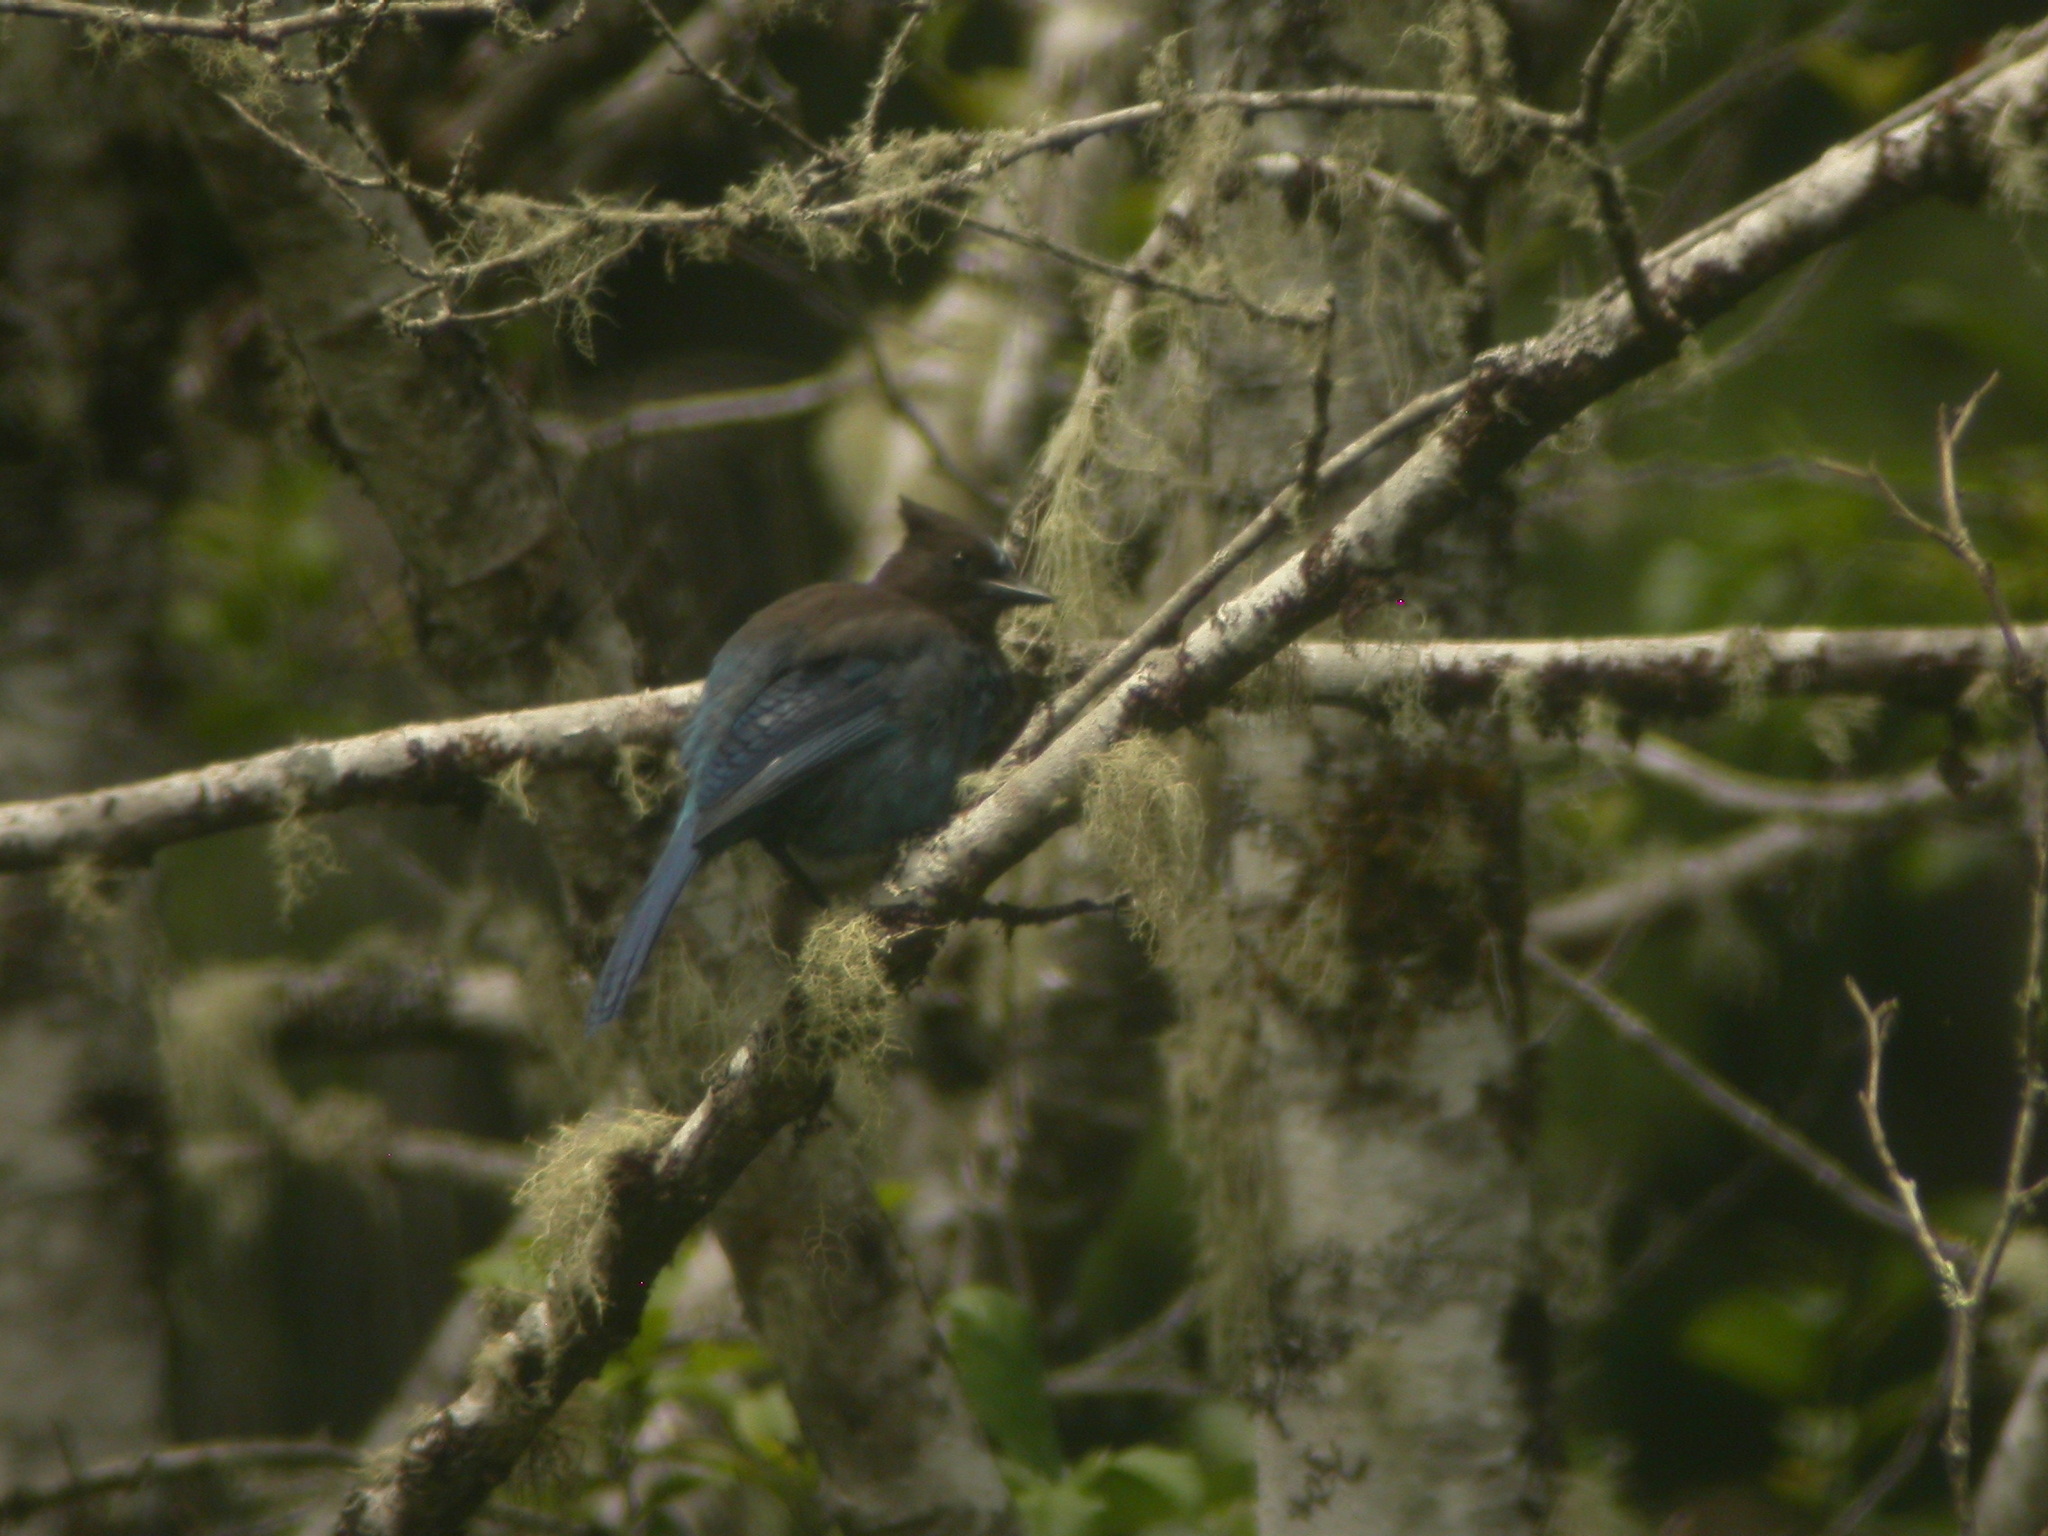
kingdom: Animalia
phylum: Chordata
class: Aves
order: Passeriformes
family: Corvidae
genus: Cyanocitta
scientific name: Cyanocitta stelleri
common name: Steller's jay
